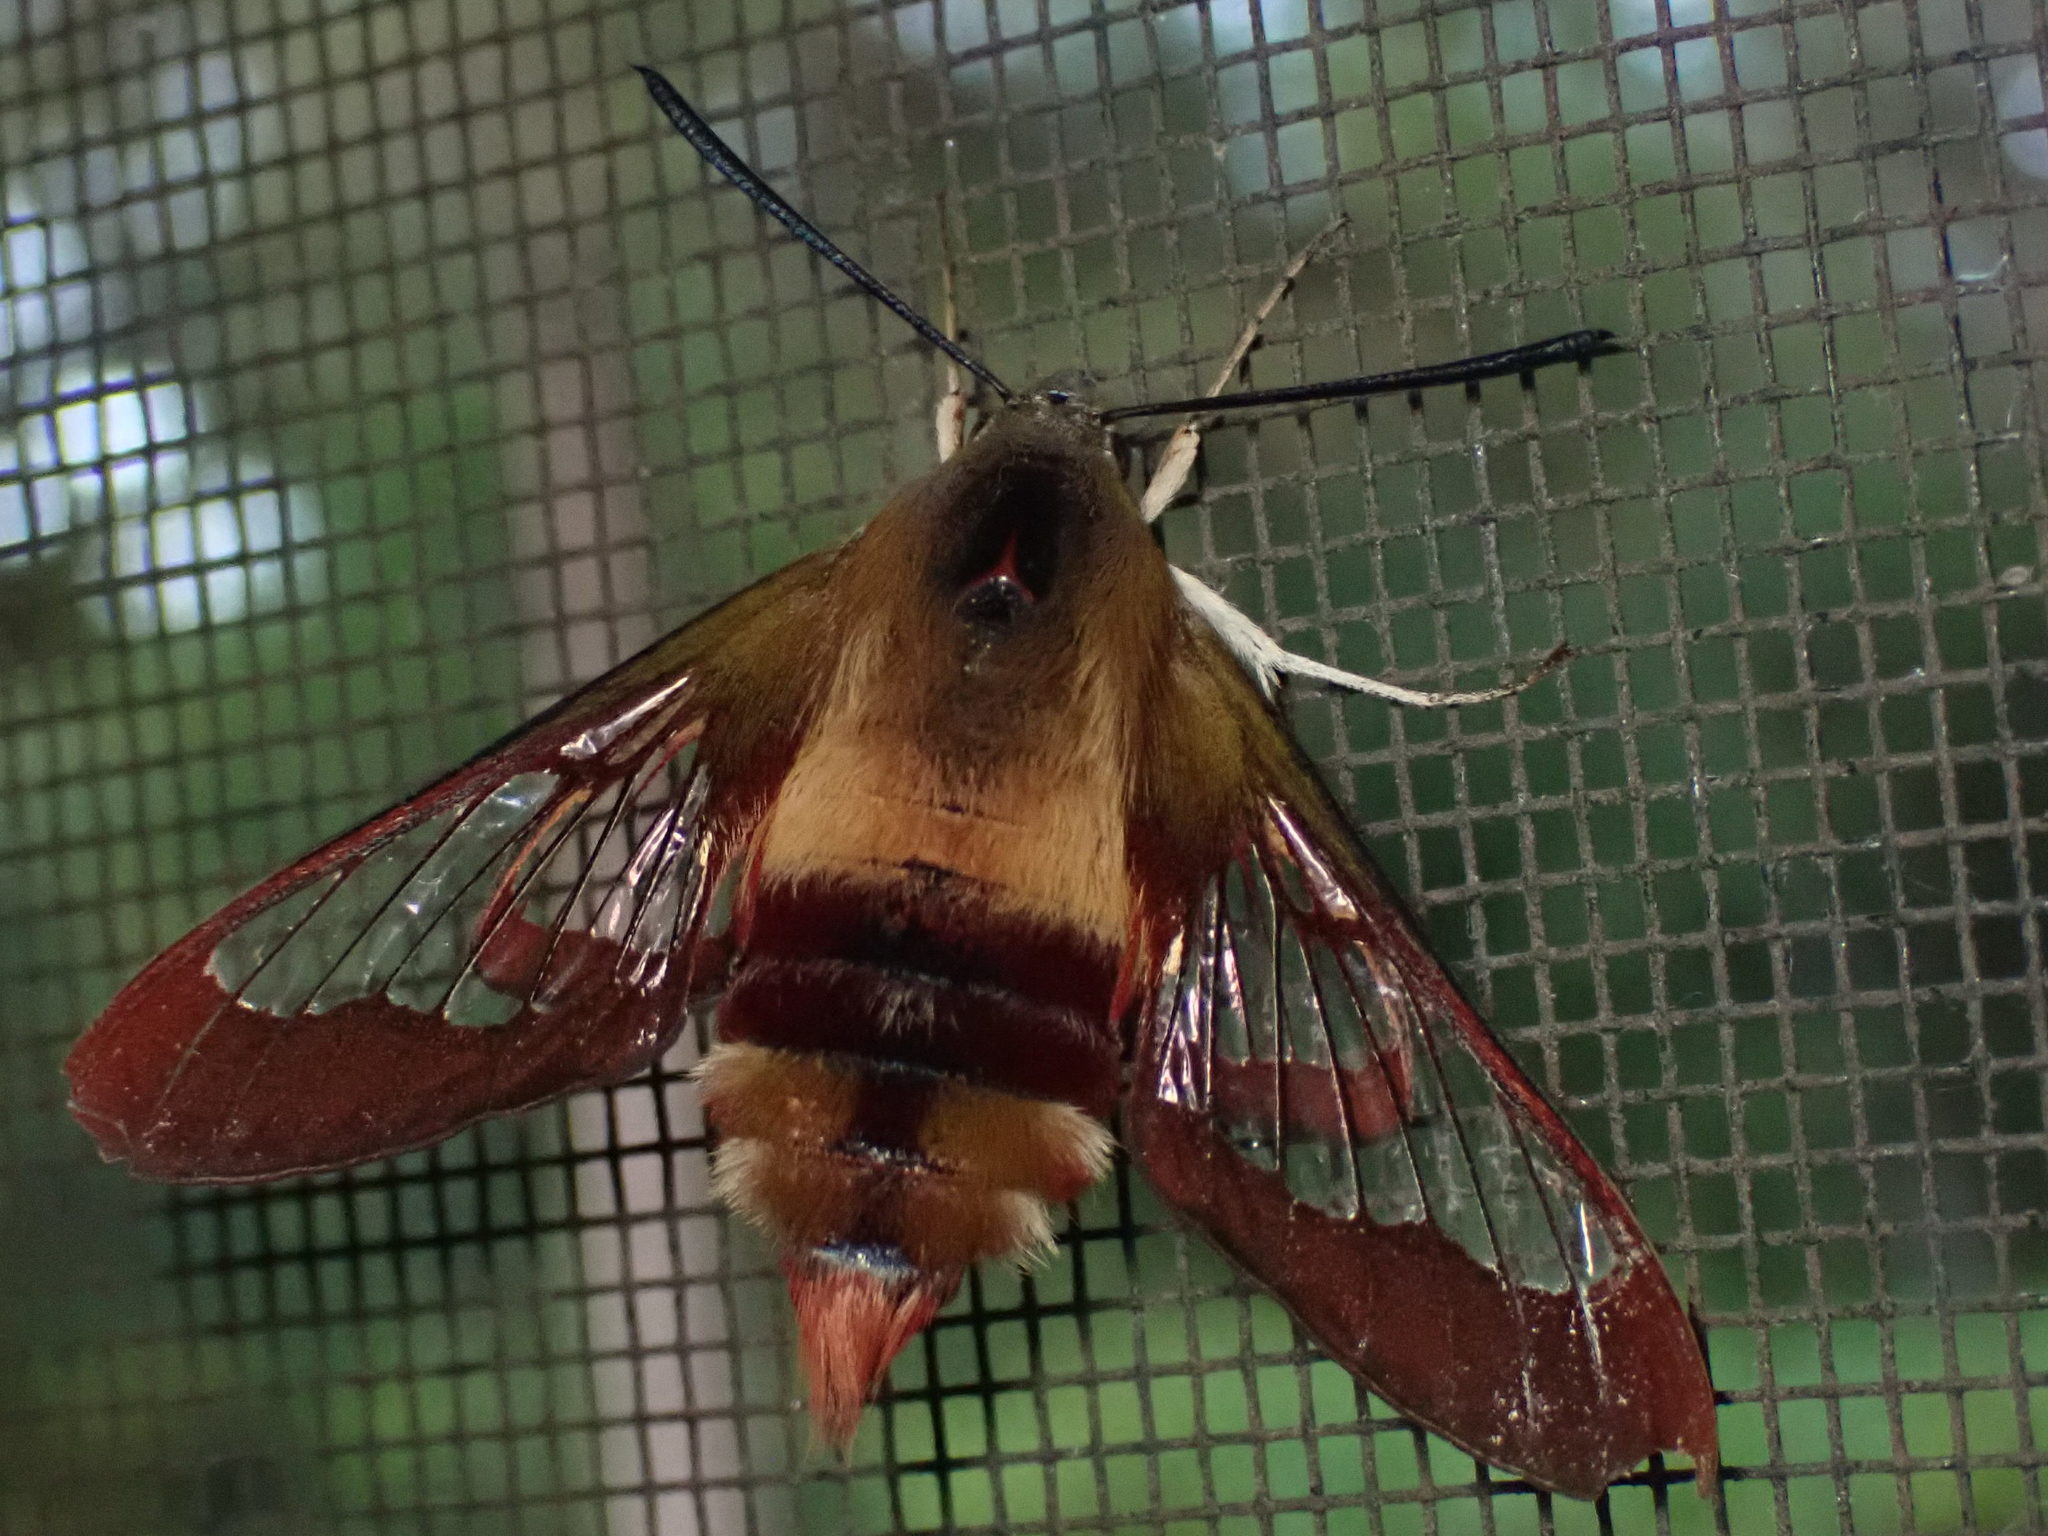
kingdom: Animalia
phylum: Arthropoda
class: Insecta
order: Lepidoptera
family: Sphingidae
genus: Hemaris
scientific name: Hemaris thysbe
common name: Common clear-wing
